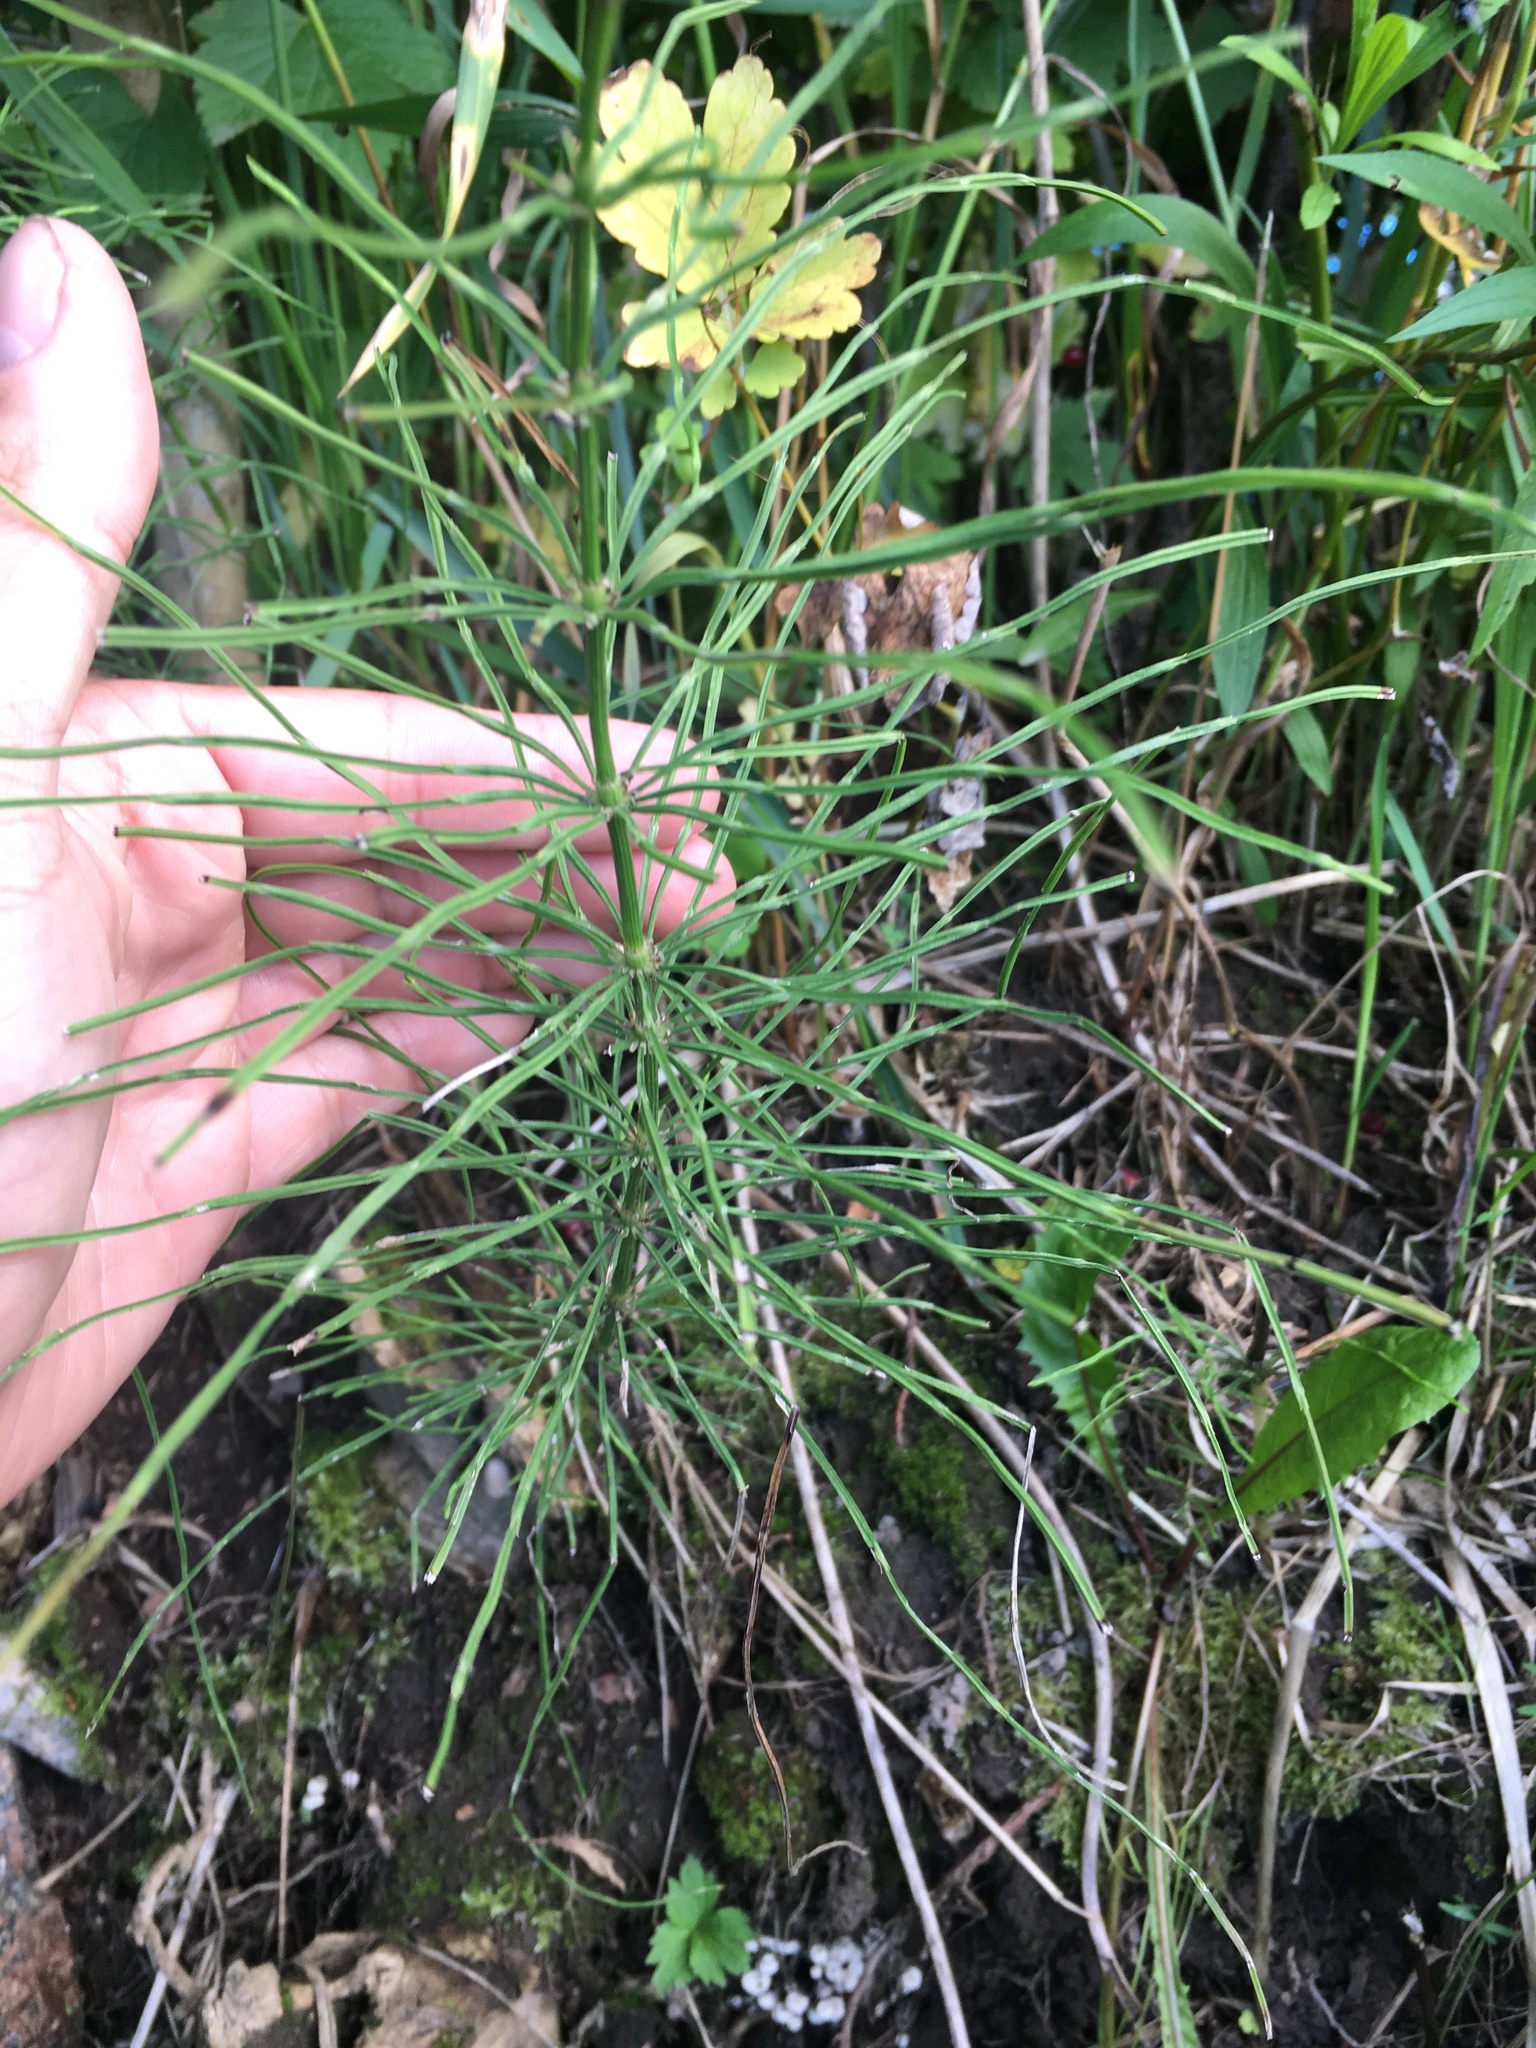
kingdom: Plantae
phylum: Tracheophyta
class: Polypodiopsida
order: Equisetales
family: Equisetaceae
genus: Equisetum
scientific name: Equisetum arvense
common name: Field horsetail
